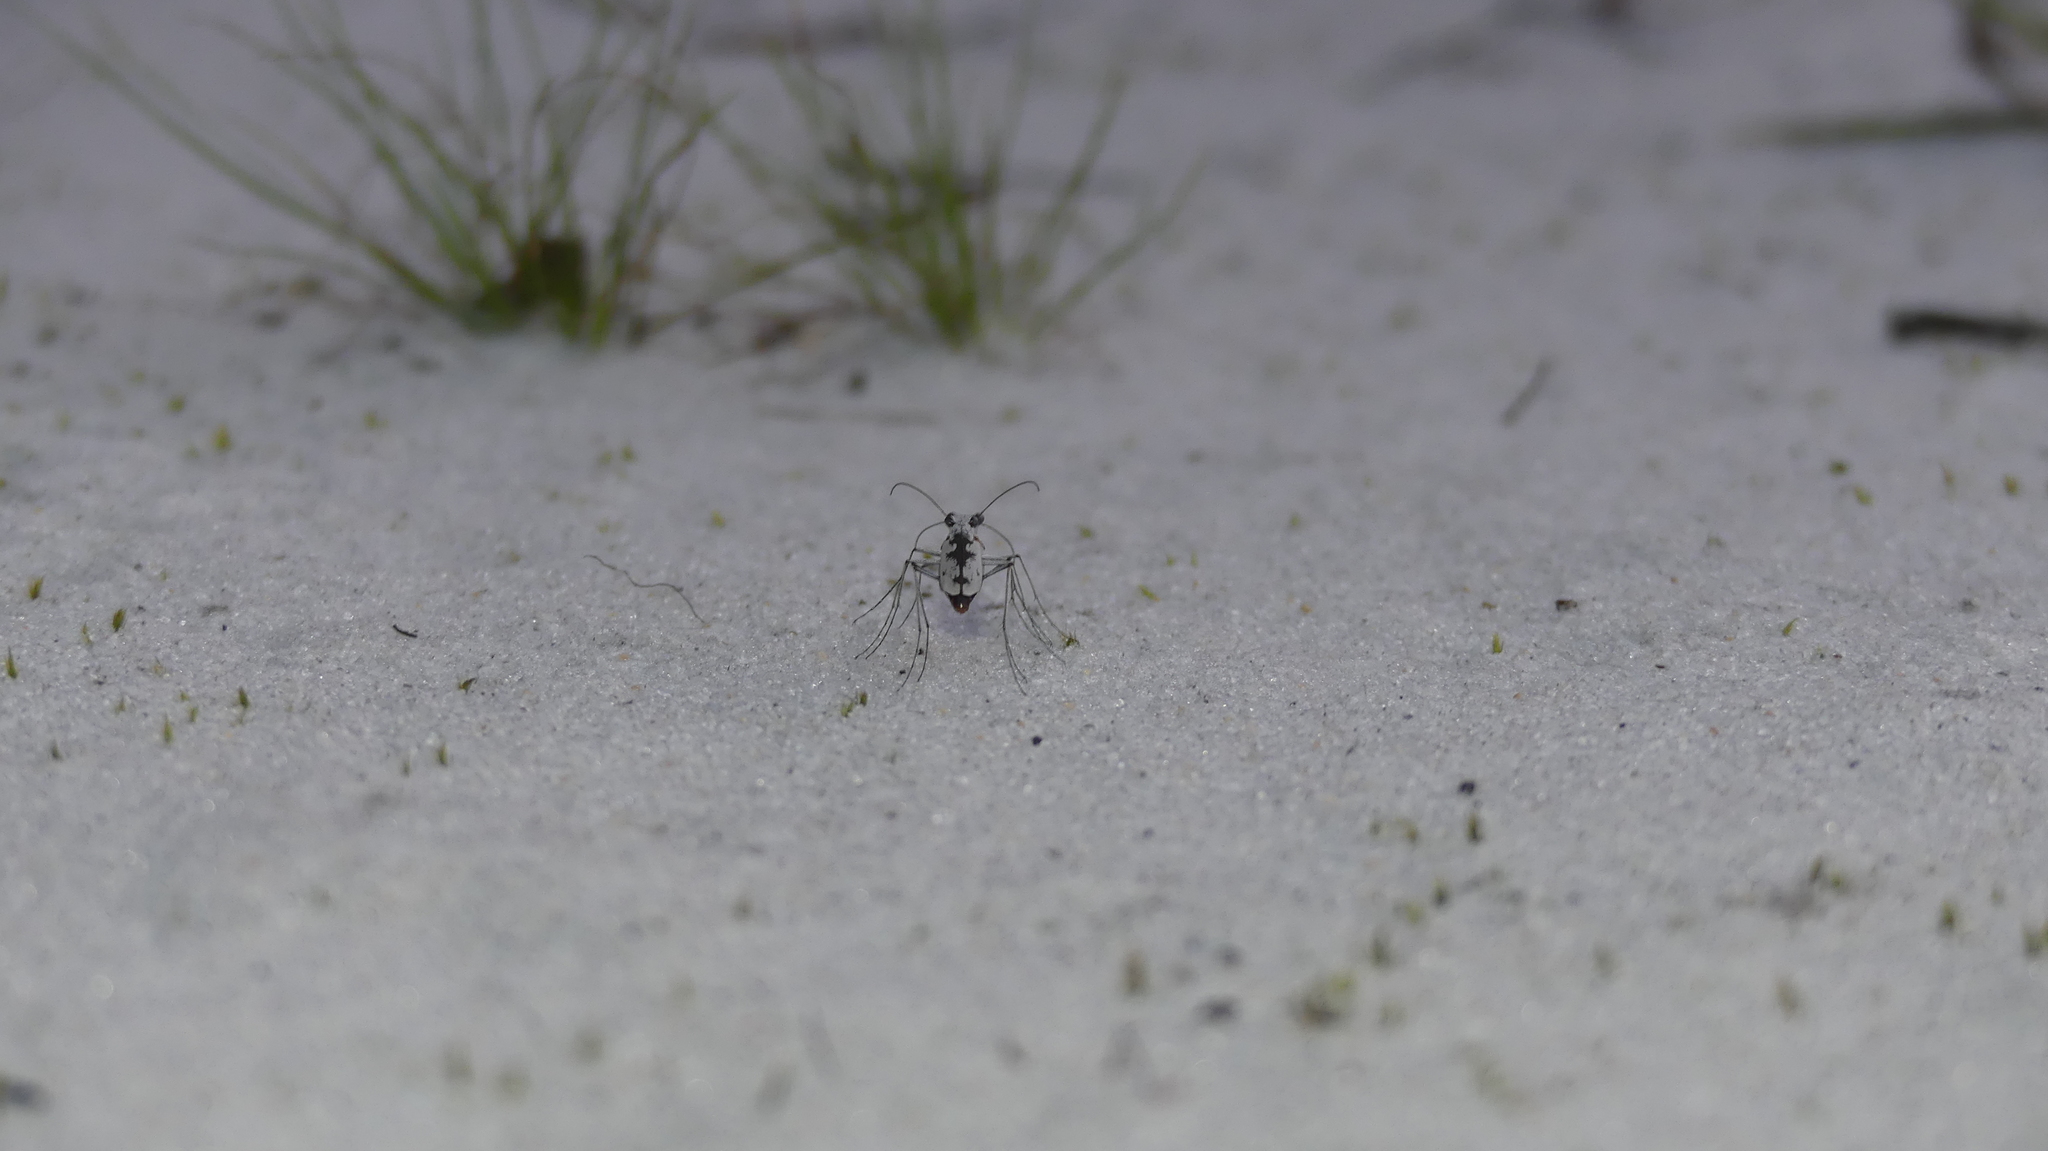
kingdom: Animalia
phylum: Arthropoda
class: Insecta
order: Coleoptera
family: Carabidae
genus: Ellipsoptera
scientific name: Ellipsoptera hirtilabris
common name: Moustached tiger beetle
